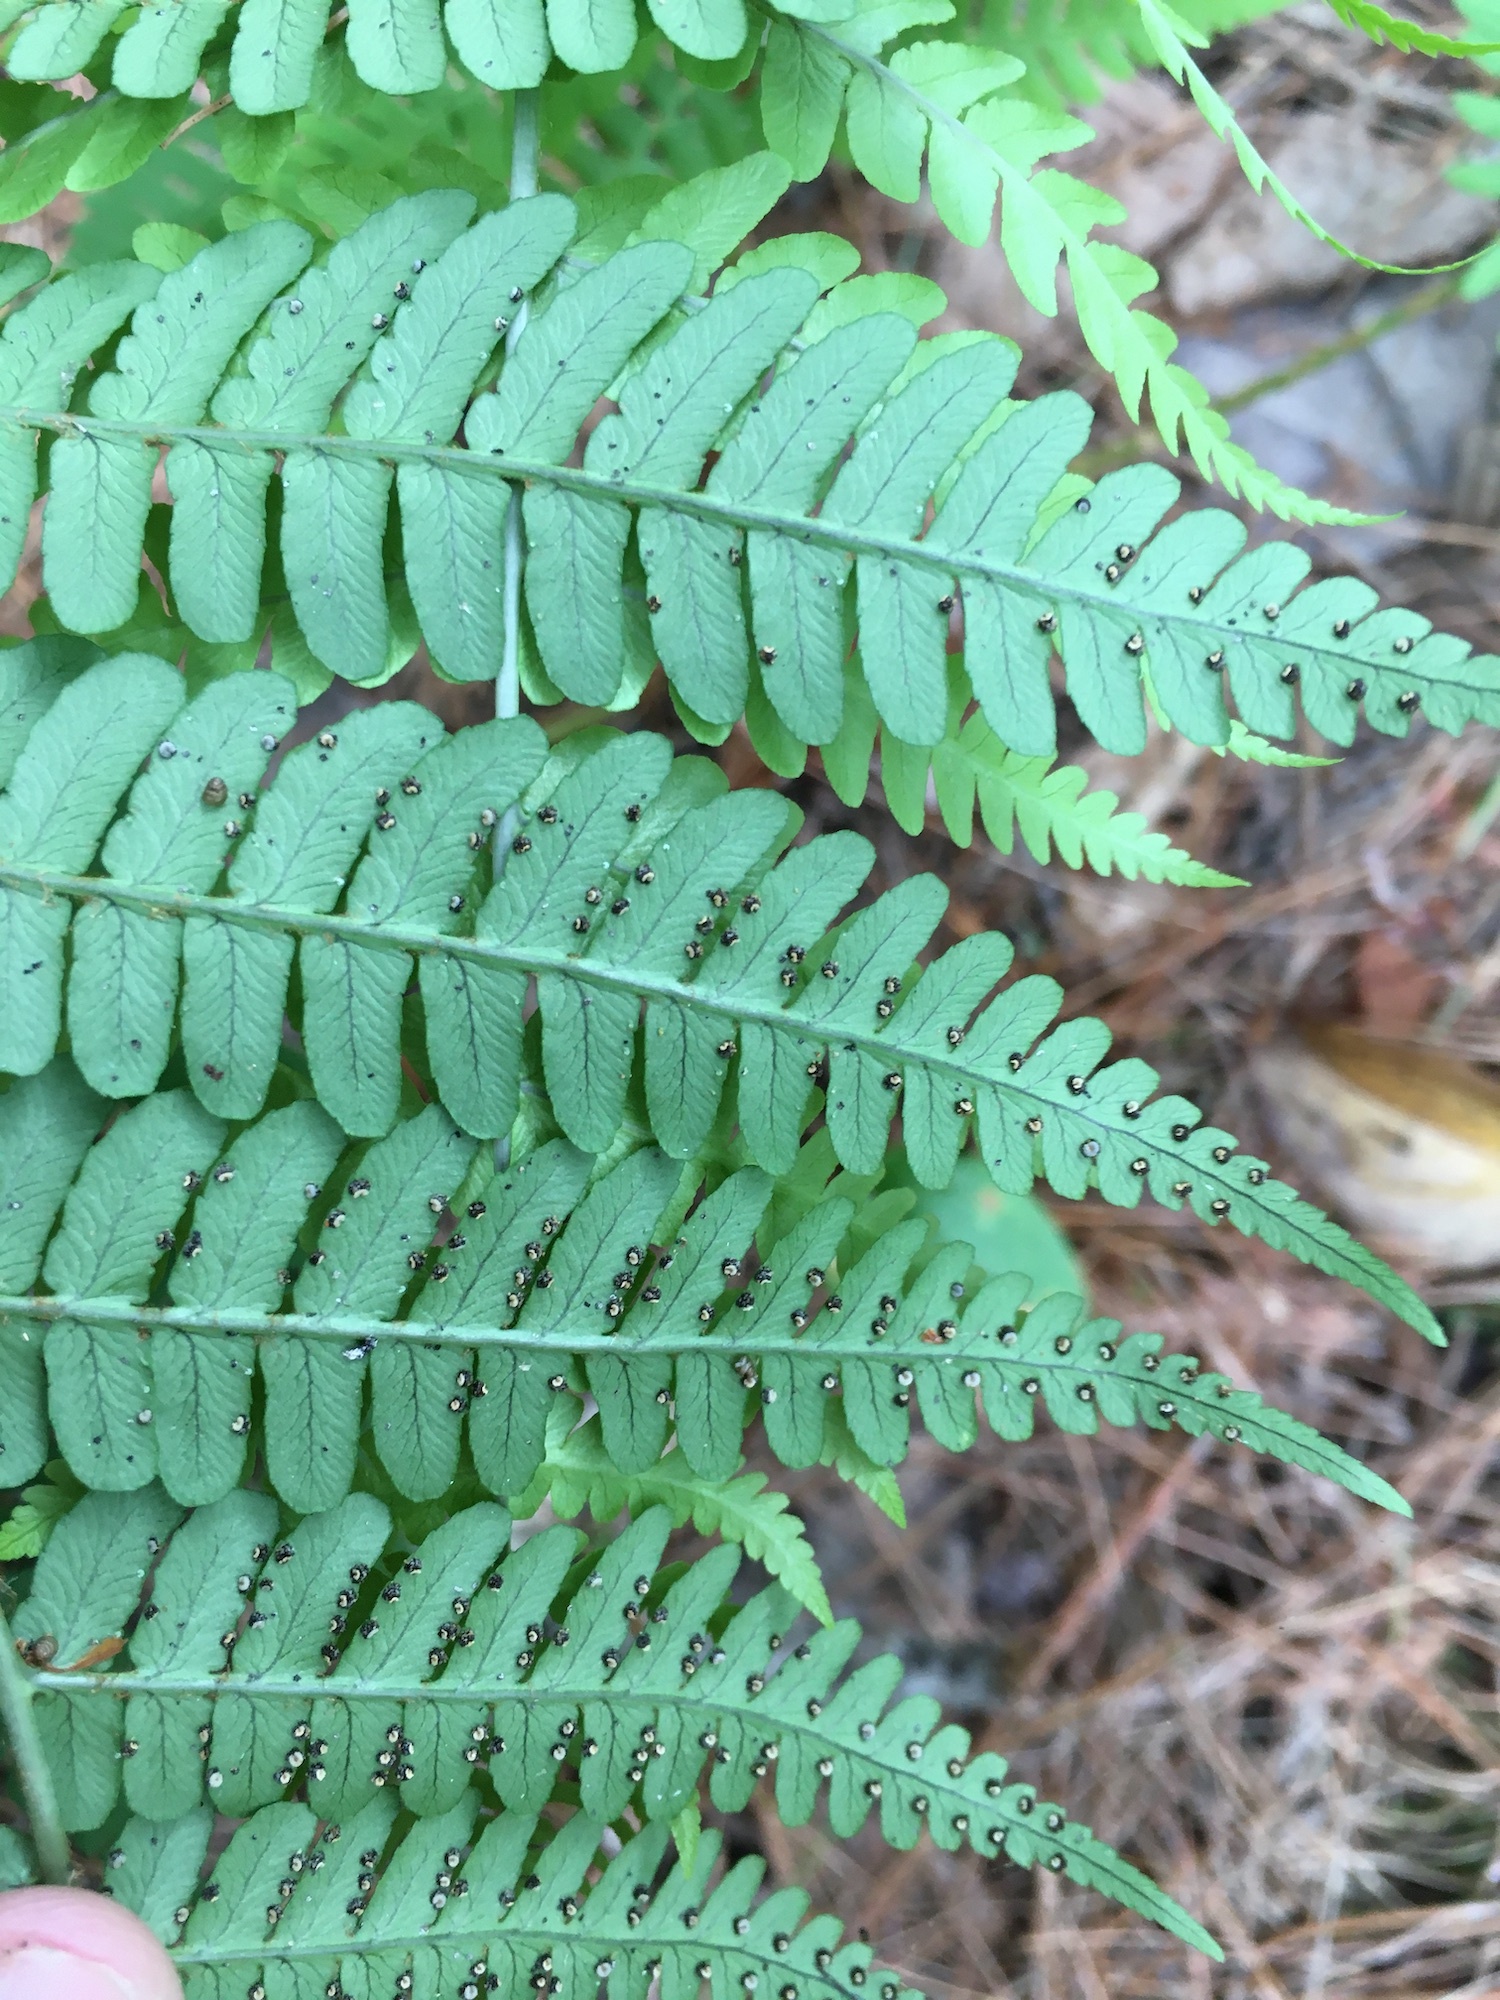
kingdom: Plantae
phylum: Tracheophyta
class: Polypodiopsida
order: Polypodiales
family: Dryopteridaceae
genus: Dryopteris
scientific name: Dryopteris marginalis
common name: Marginal wood fern
